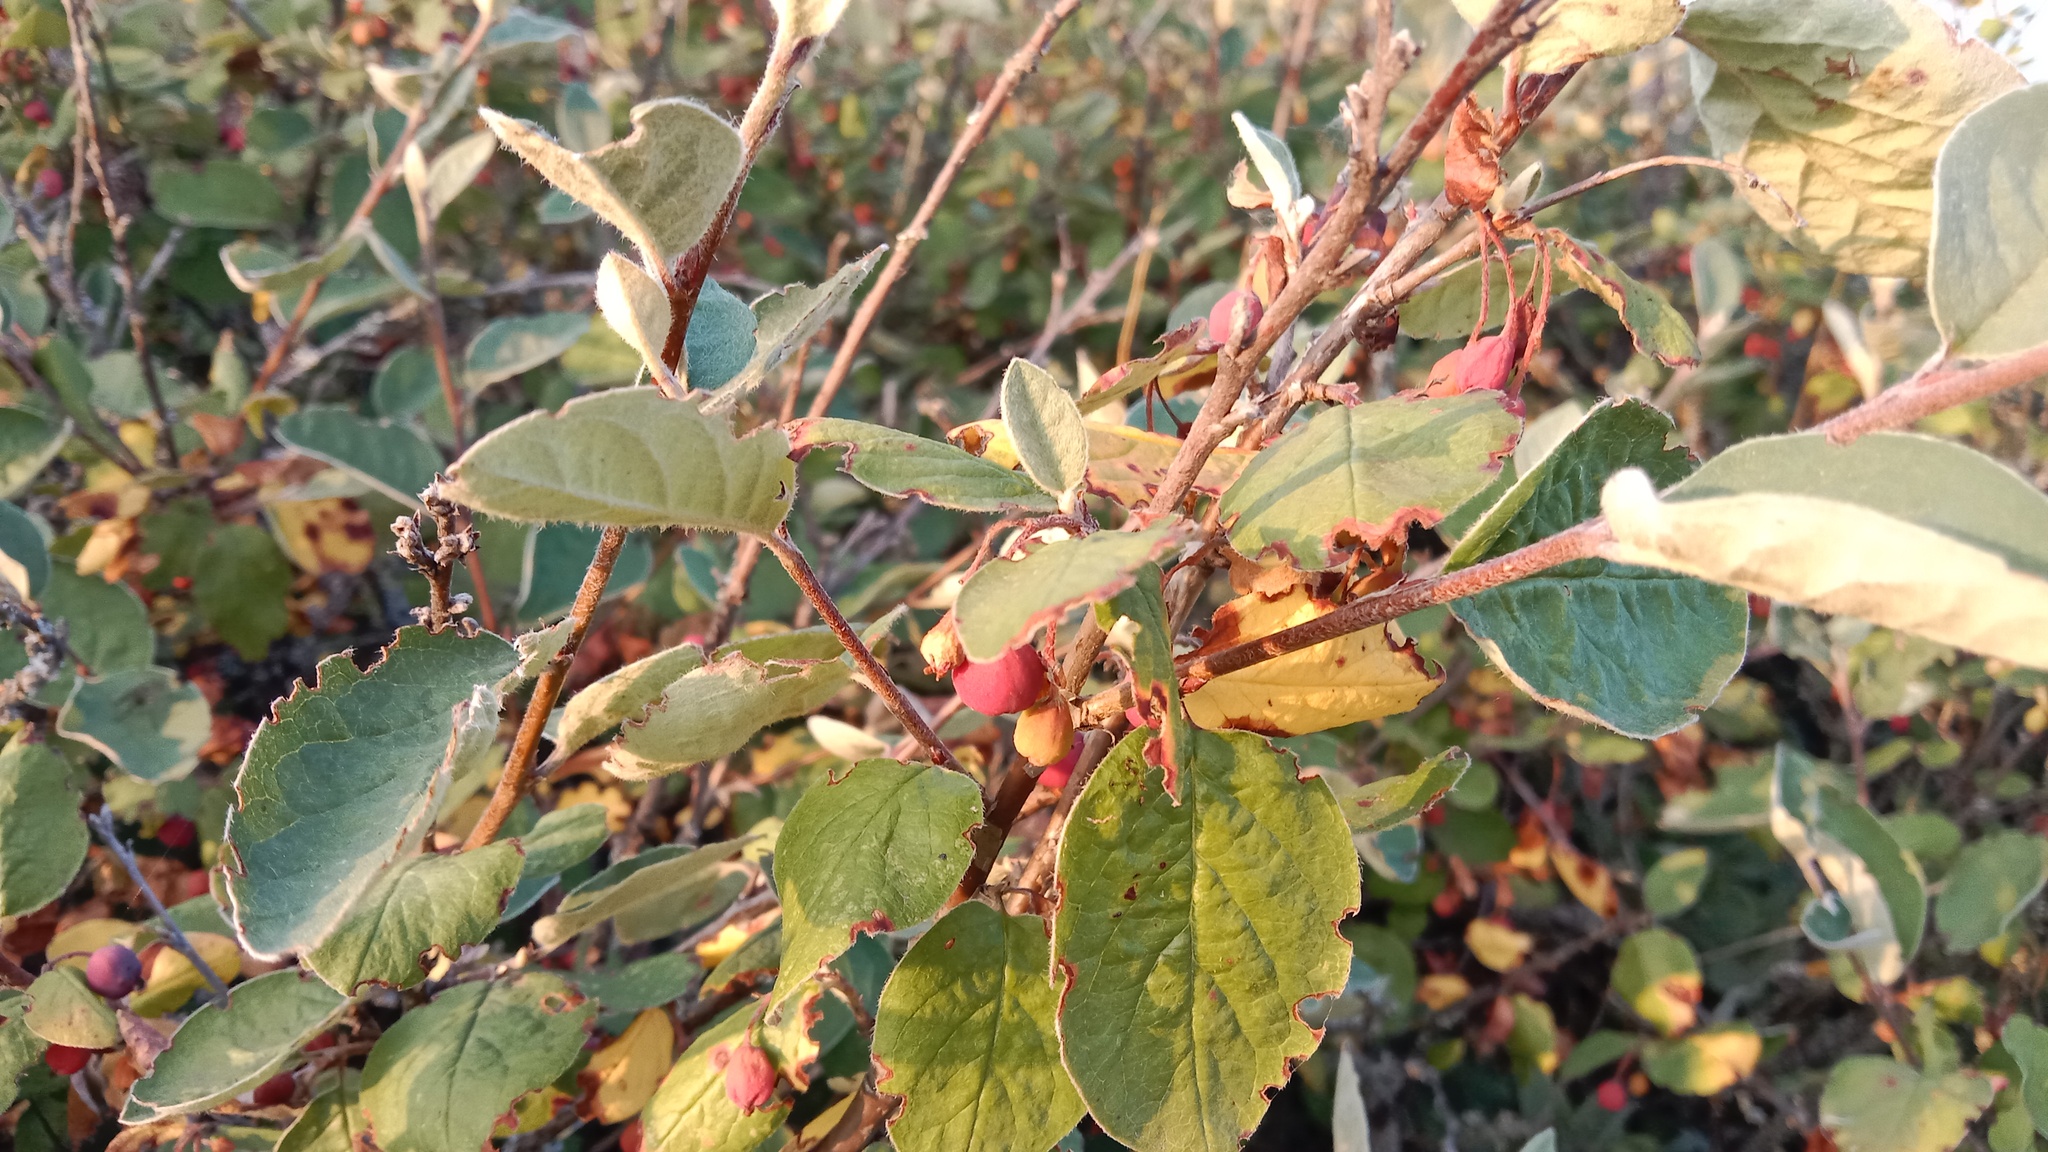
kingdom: Plantae
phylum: Tracheophyta
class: Magnoliopsida
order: Rosales
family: Rosaceae
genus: Cotoneaster
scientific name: Cotoneaster melanocarpus
